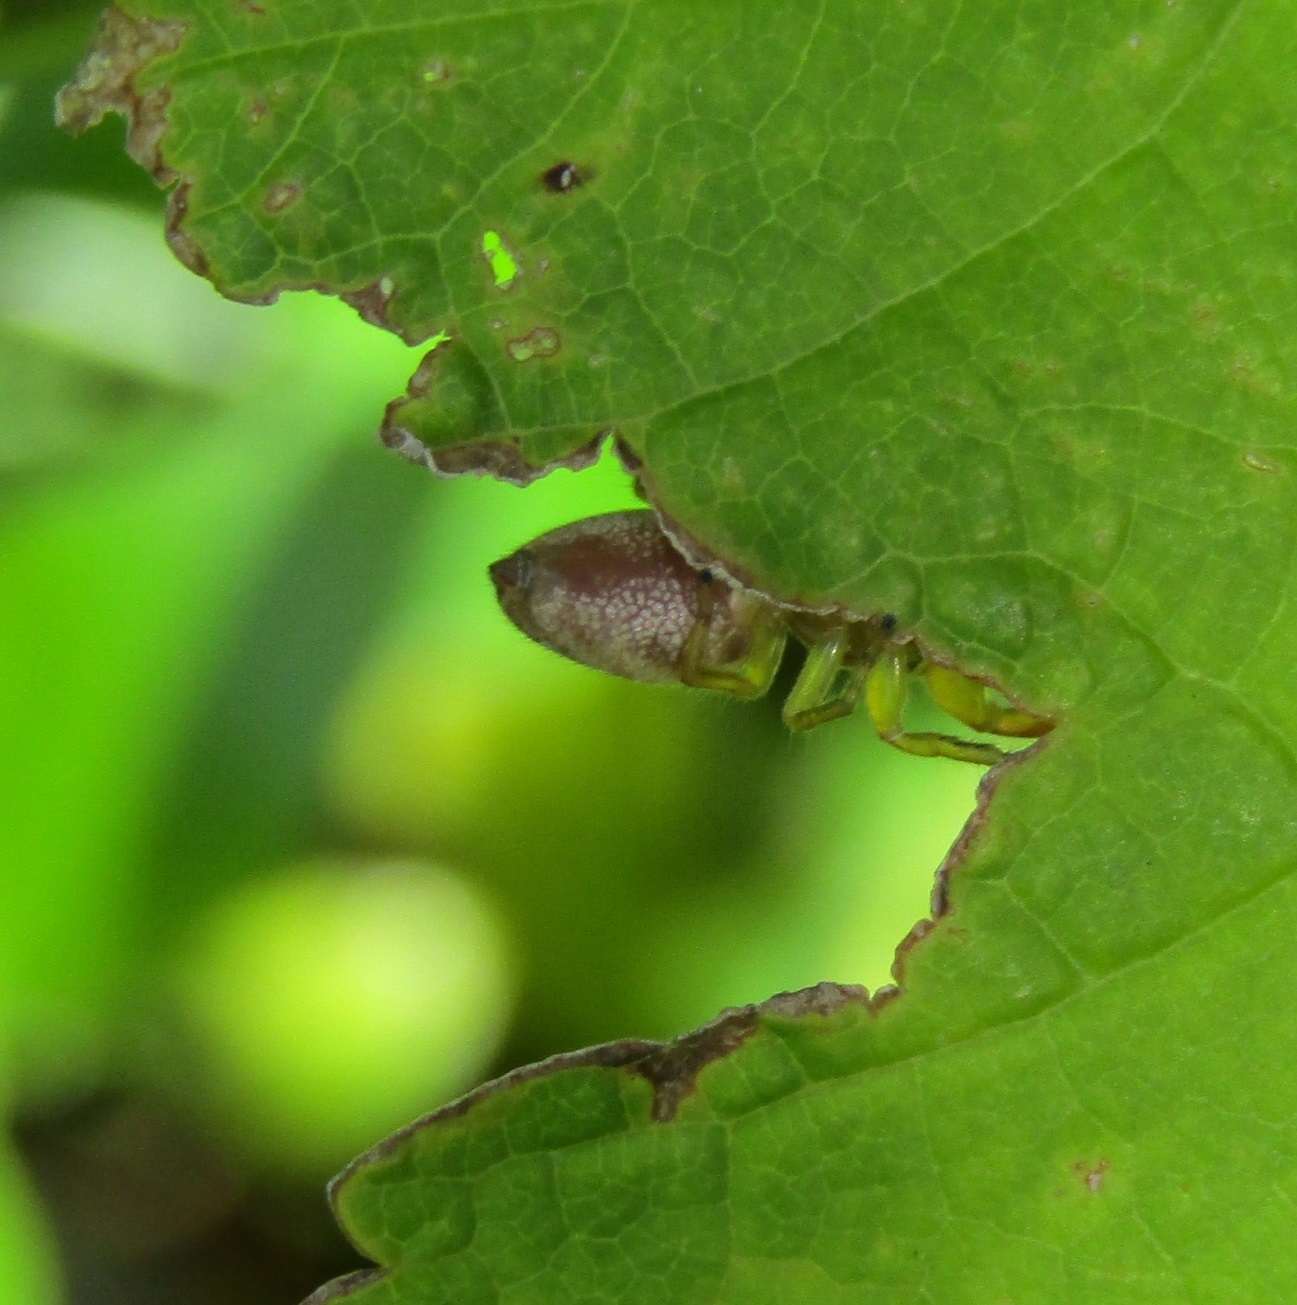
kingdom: Animalia
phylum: Arthropoda
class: Arachnida
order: Araneae
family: Salticidae
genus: Trite
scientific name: Trite mustilina
